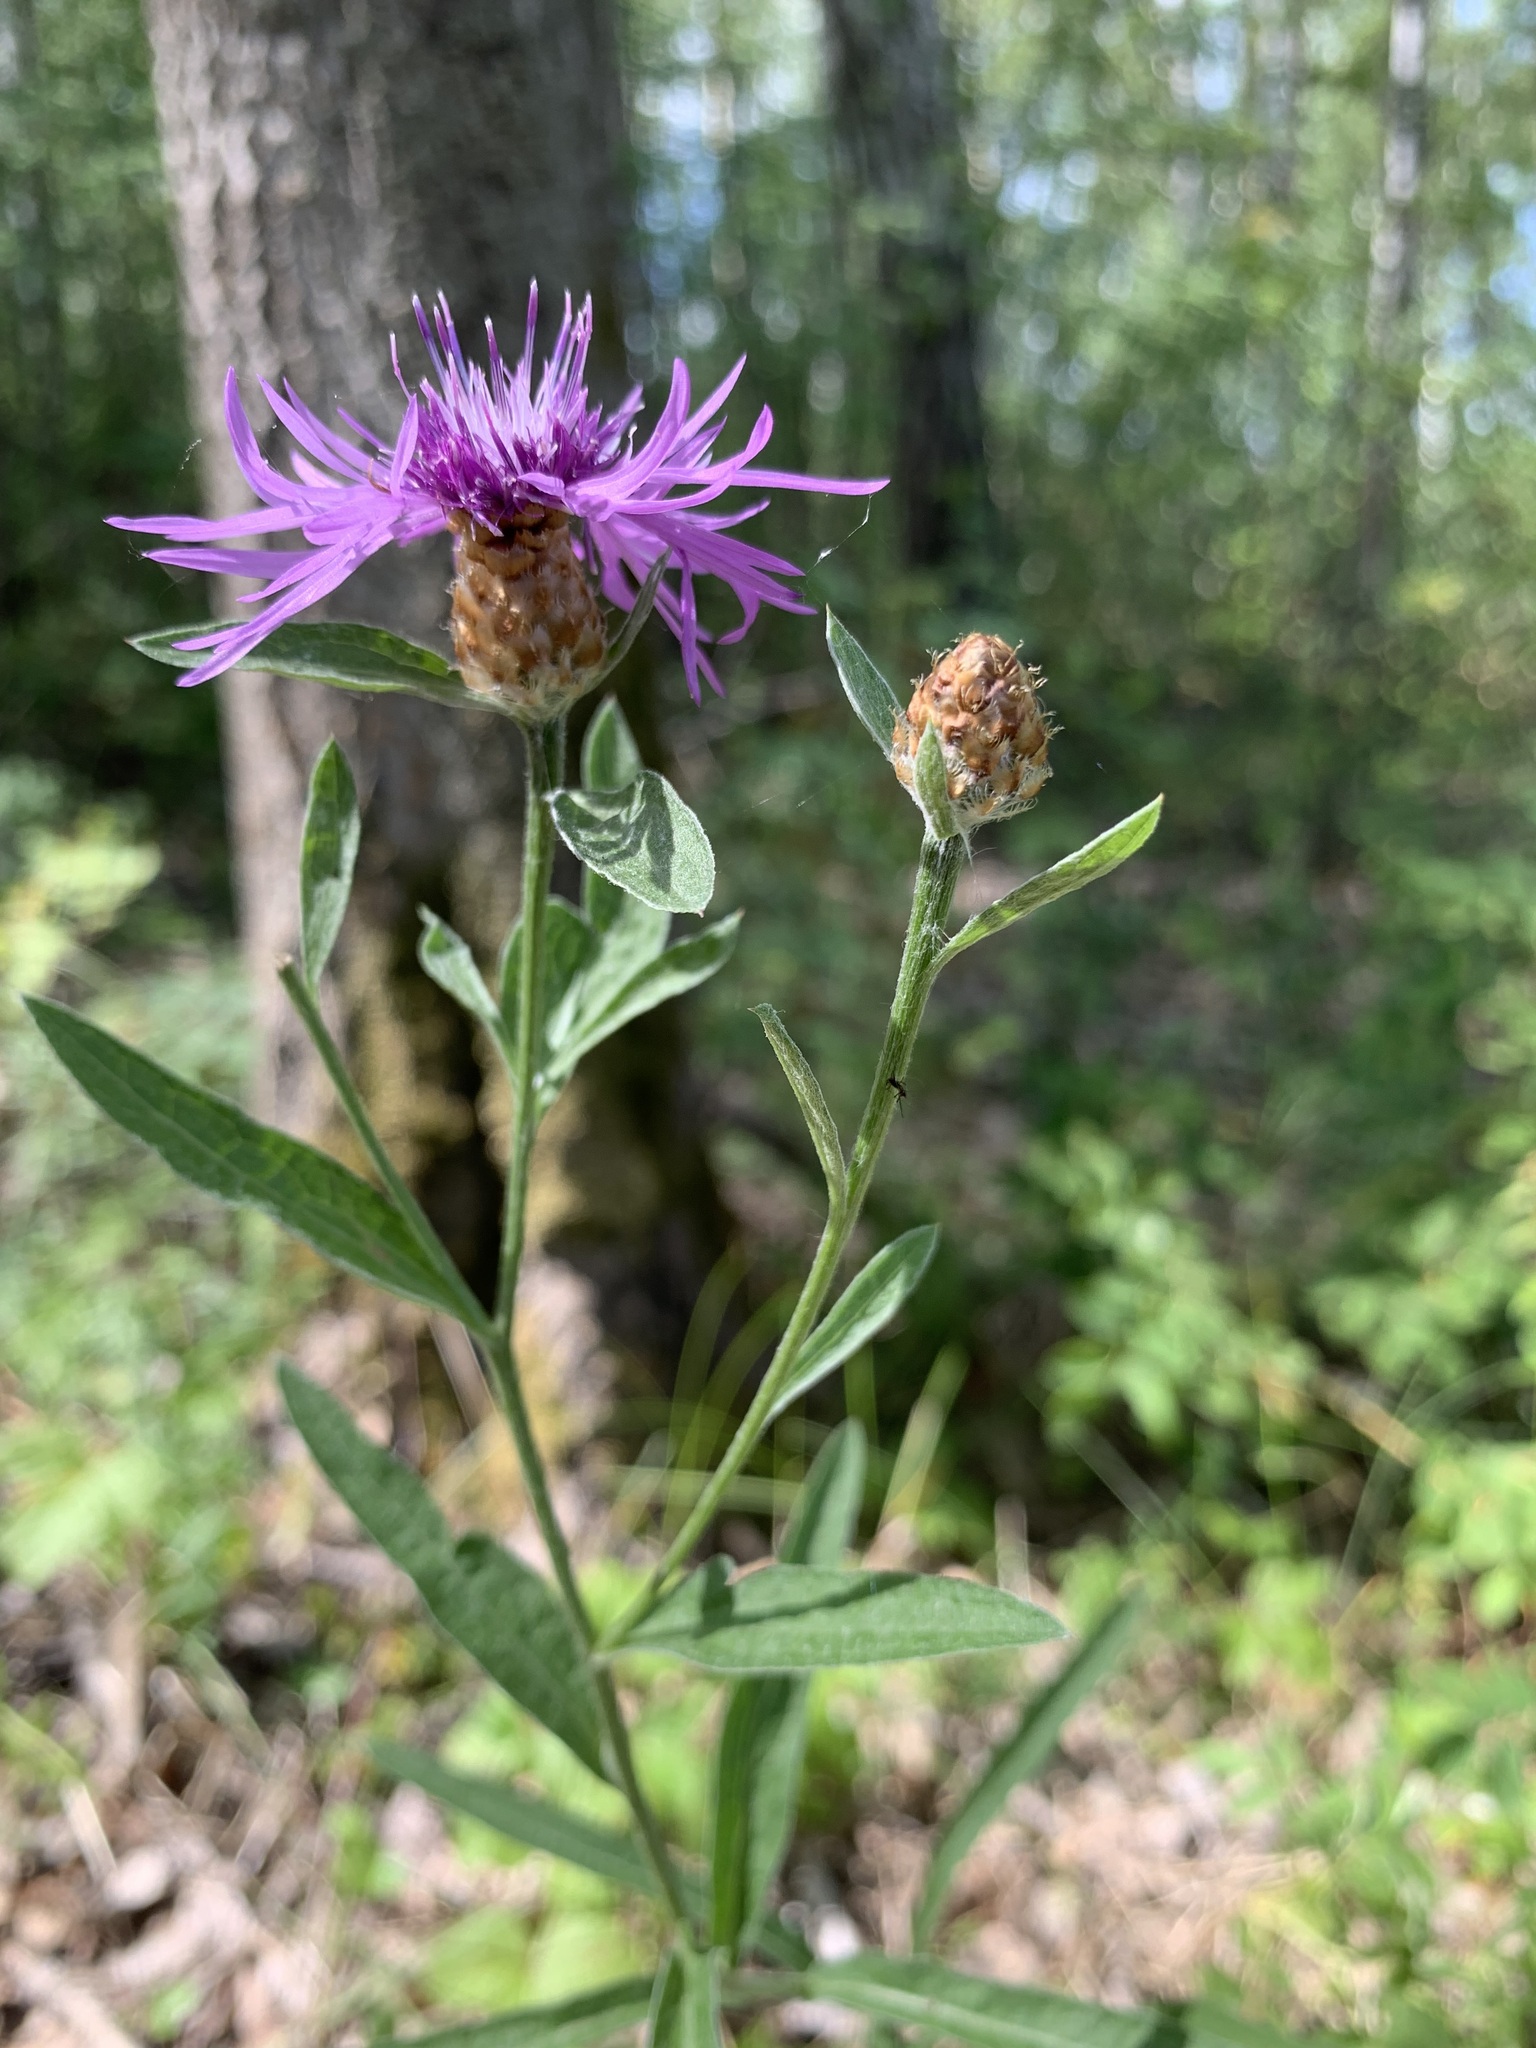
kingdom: Plantae
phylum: Tracheophyta
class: Magnoliopsida
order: Asterales
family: Asteraceae
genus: Centaurea
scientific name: Centaurea jacea
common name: Brown knapweed
